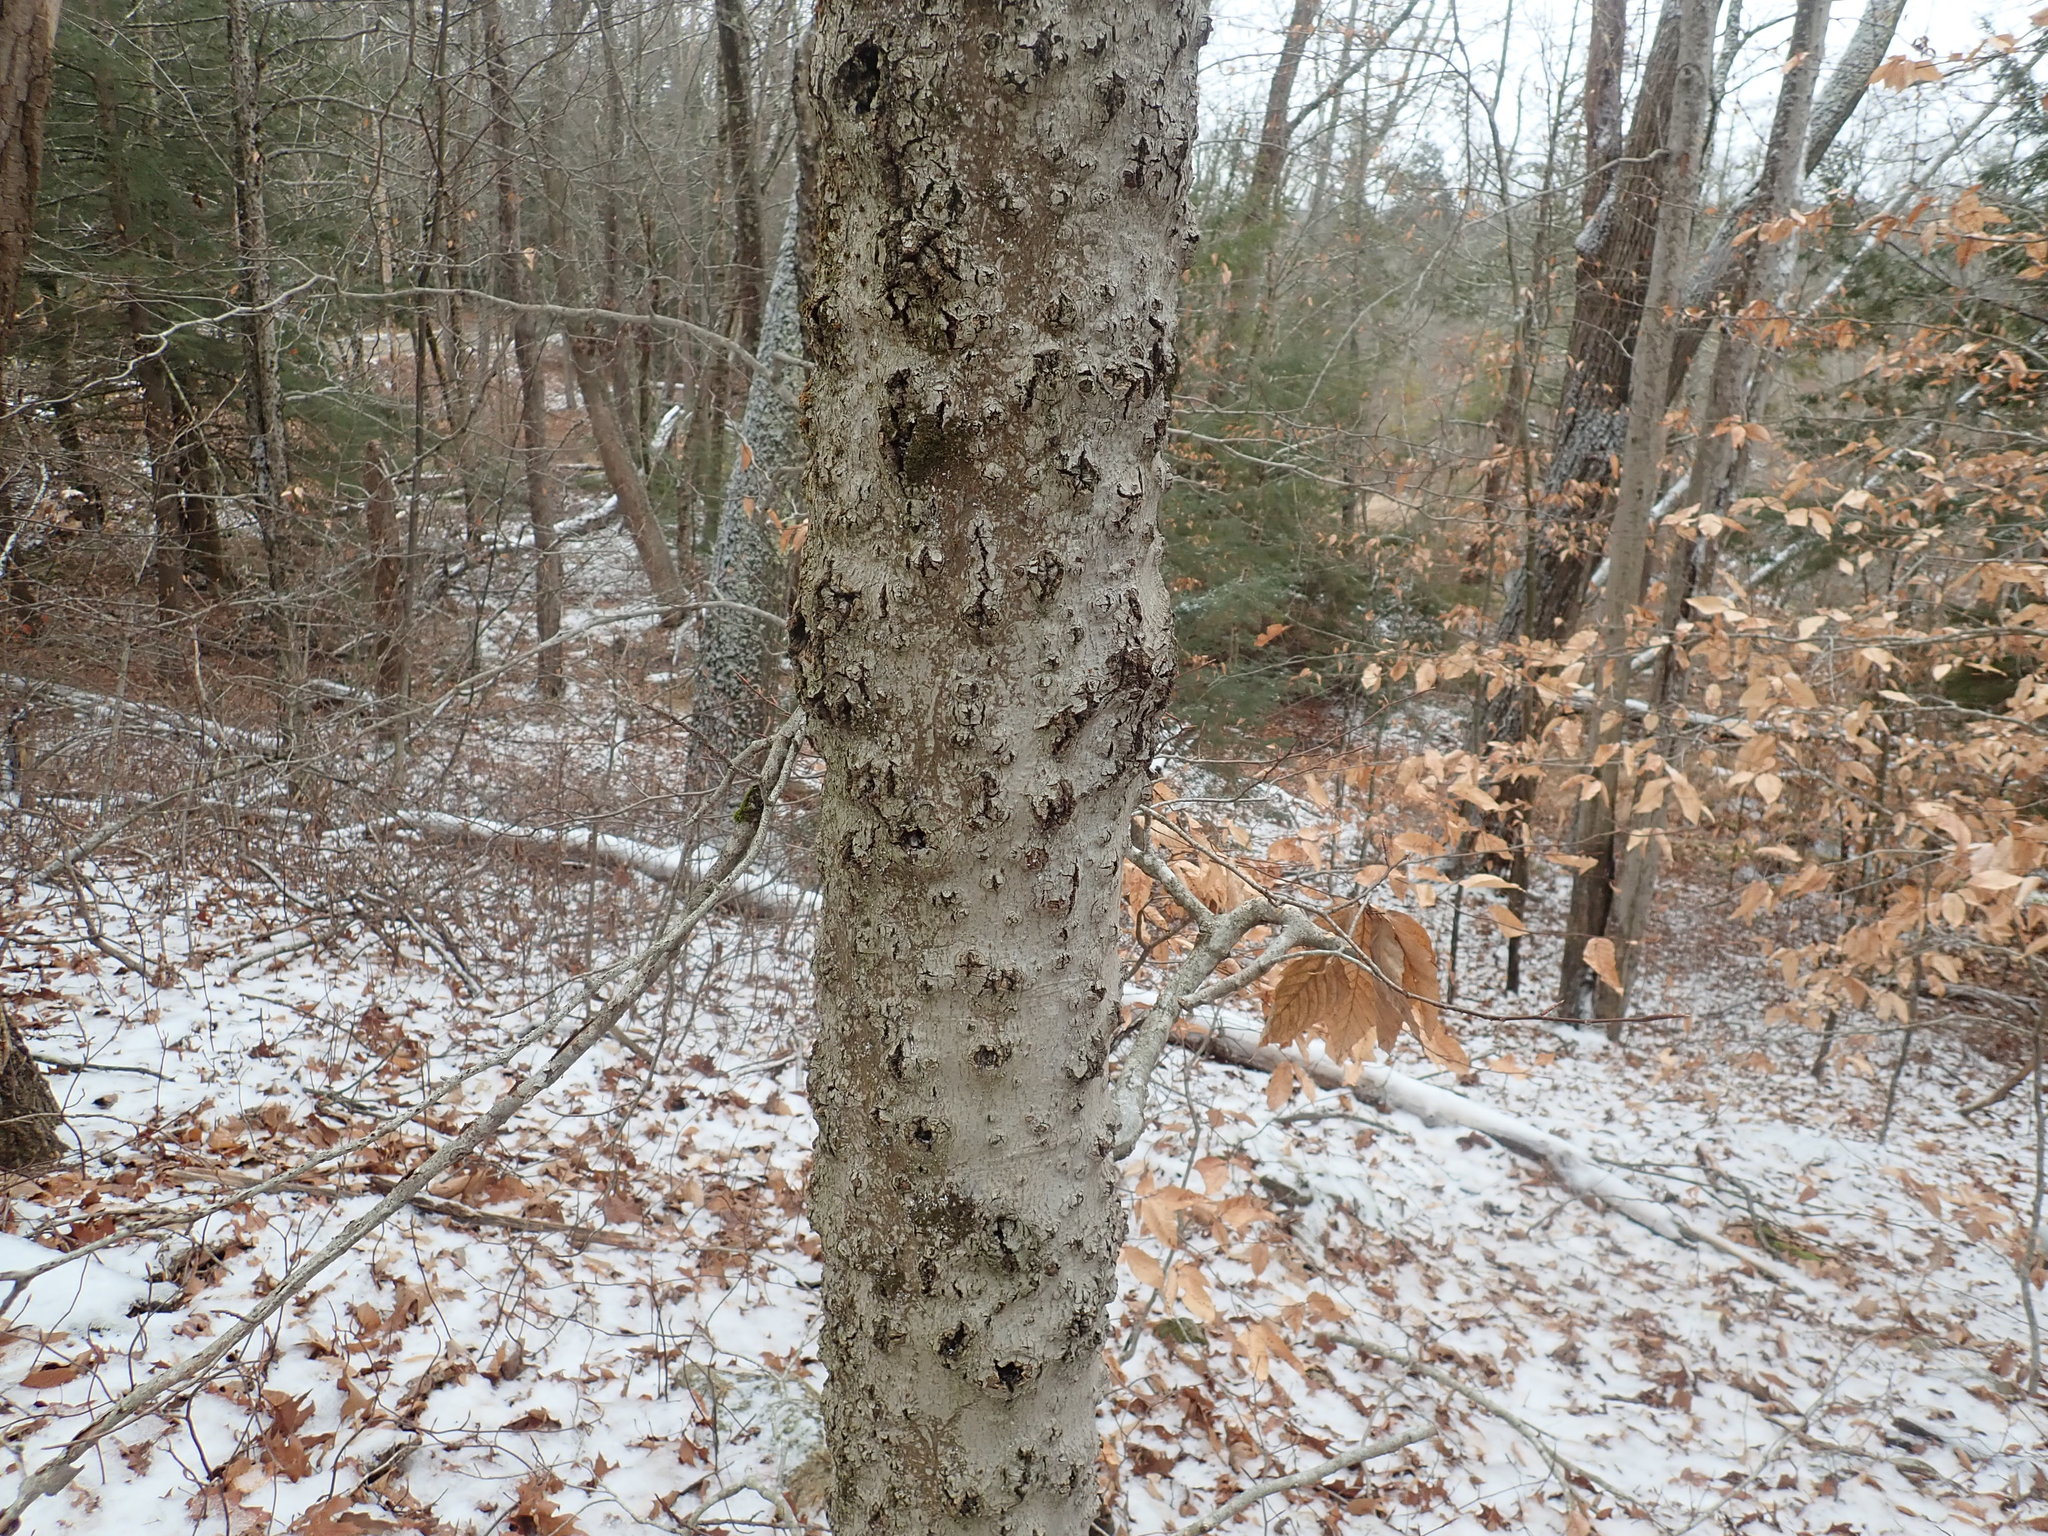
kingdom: Fungi
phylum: Ascomycota
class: Sordariomycetes
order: Hypocreales
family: Nectriaceae
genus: Neonectria
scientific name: Neonectria faginata
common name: Beech bark canker
